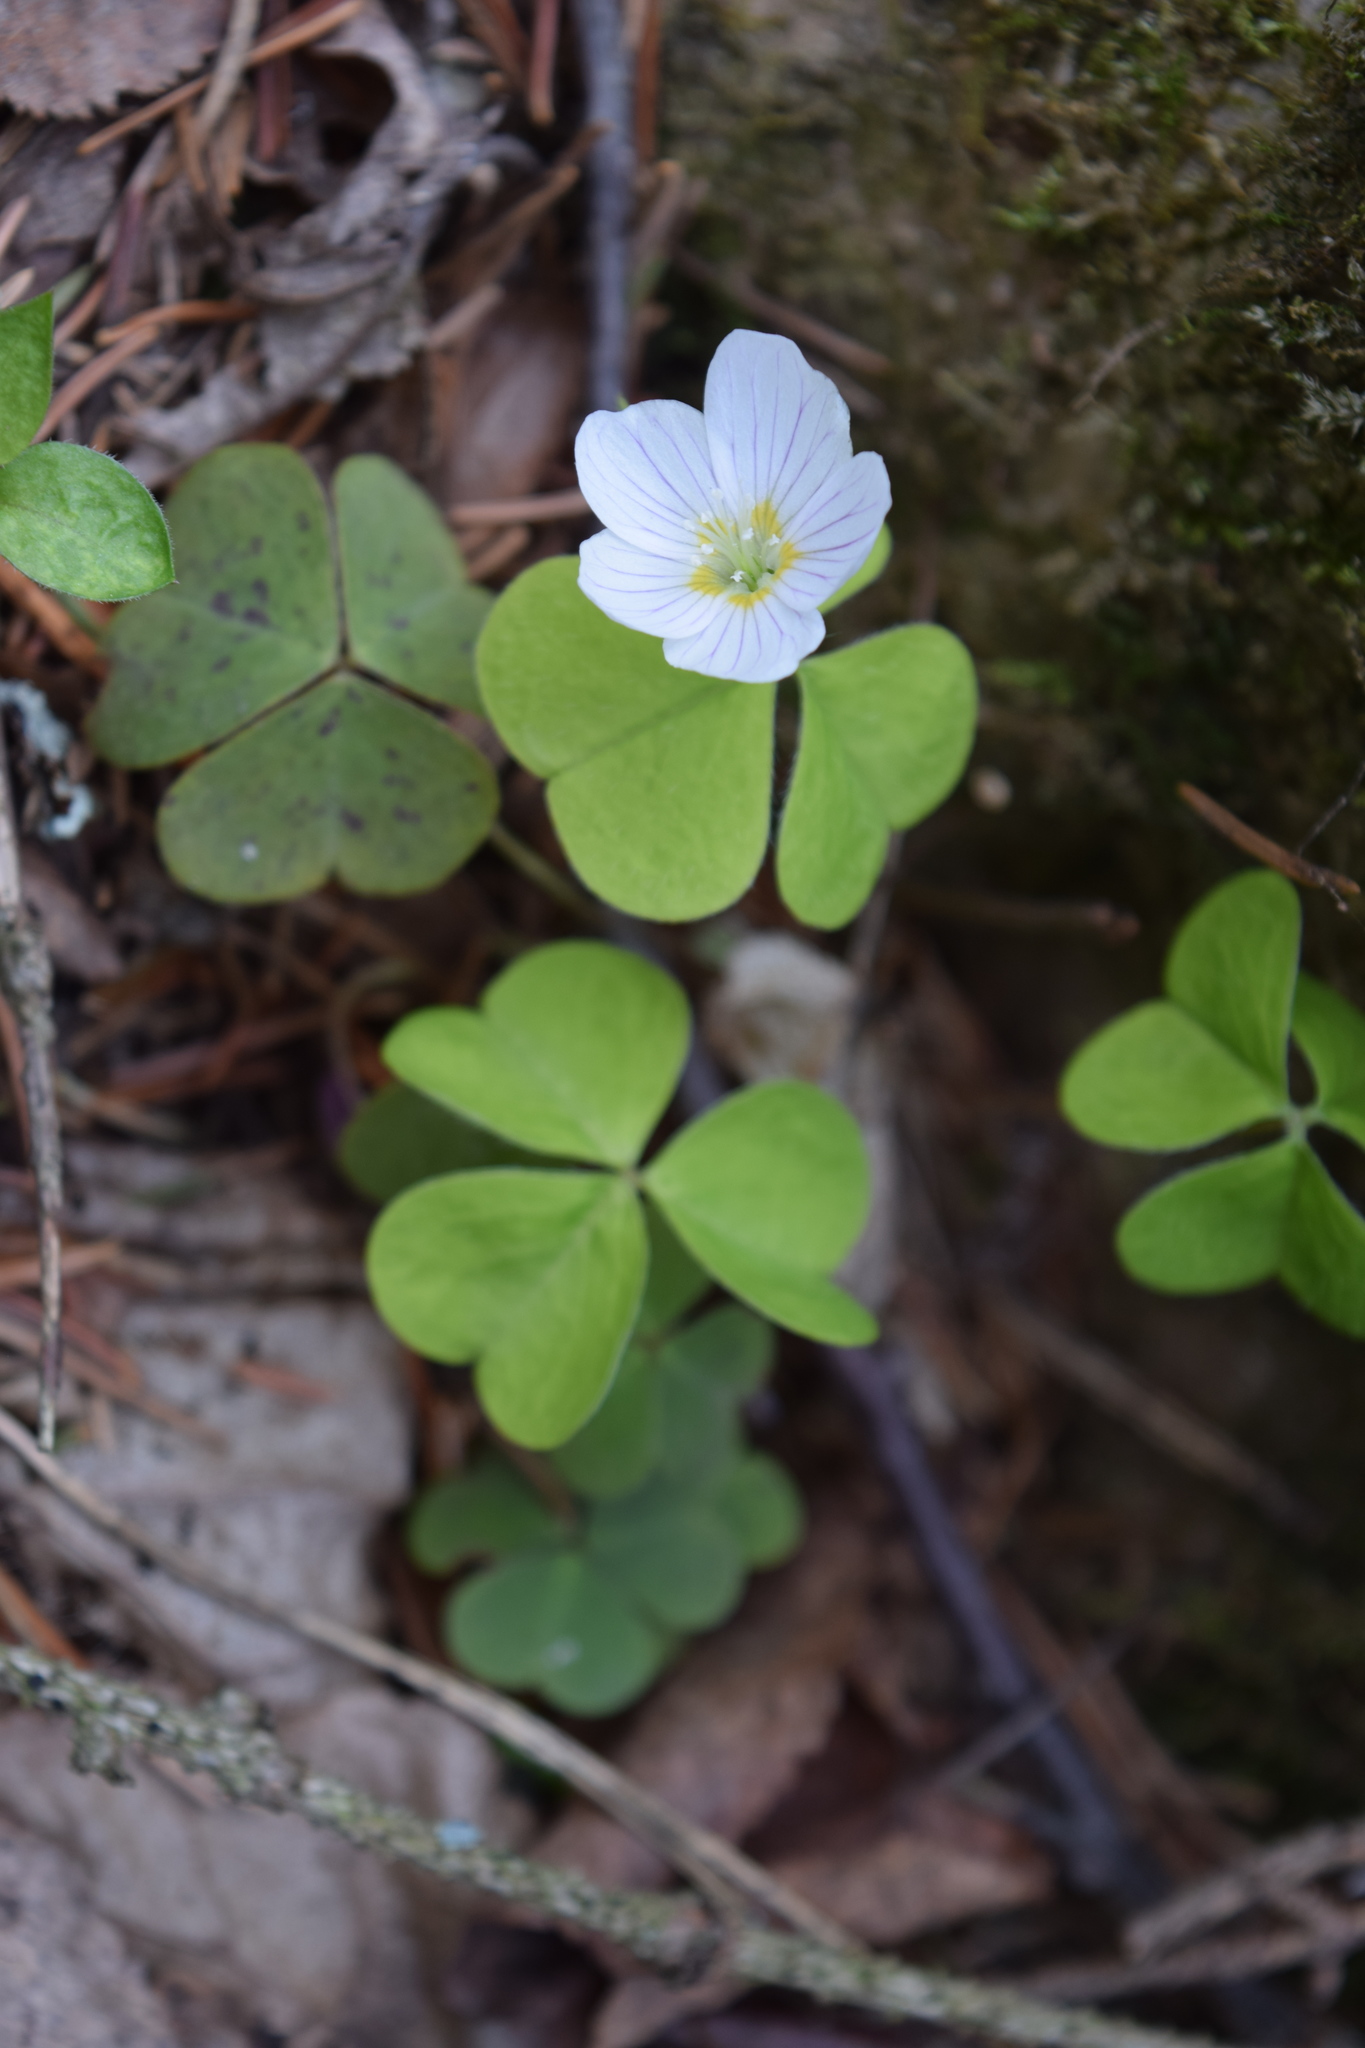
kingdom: Plantae
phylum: Tracheophyta
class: Magnoliopsida
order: Oxalidales
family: Oxalidaceae
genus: Oxalis
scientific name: Oxalis acetosella
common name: Wood-sorrel
